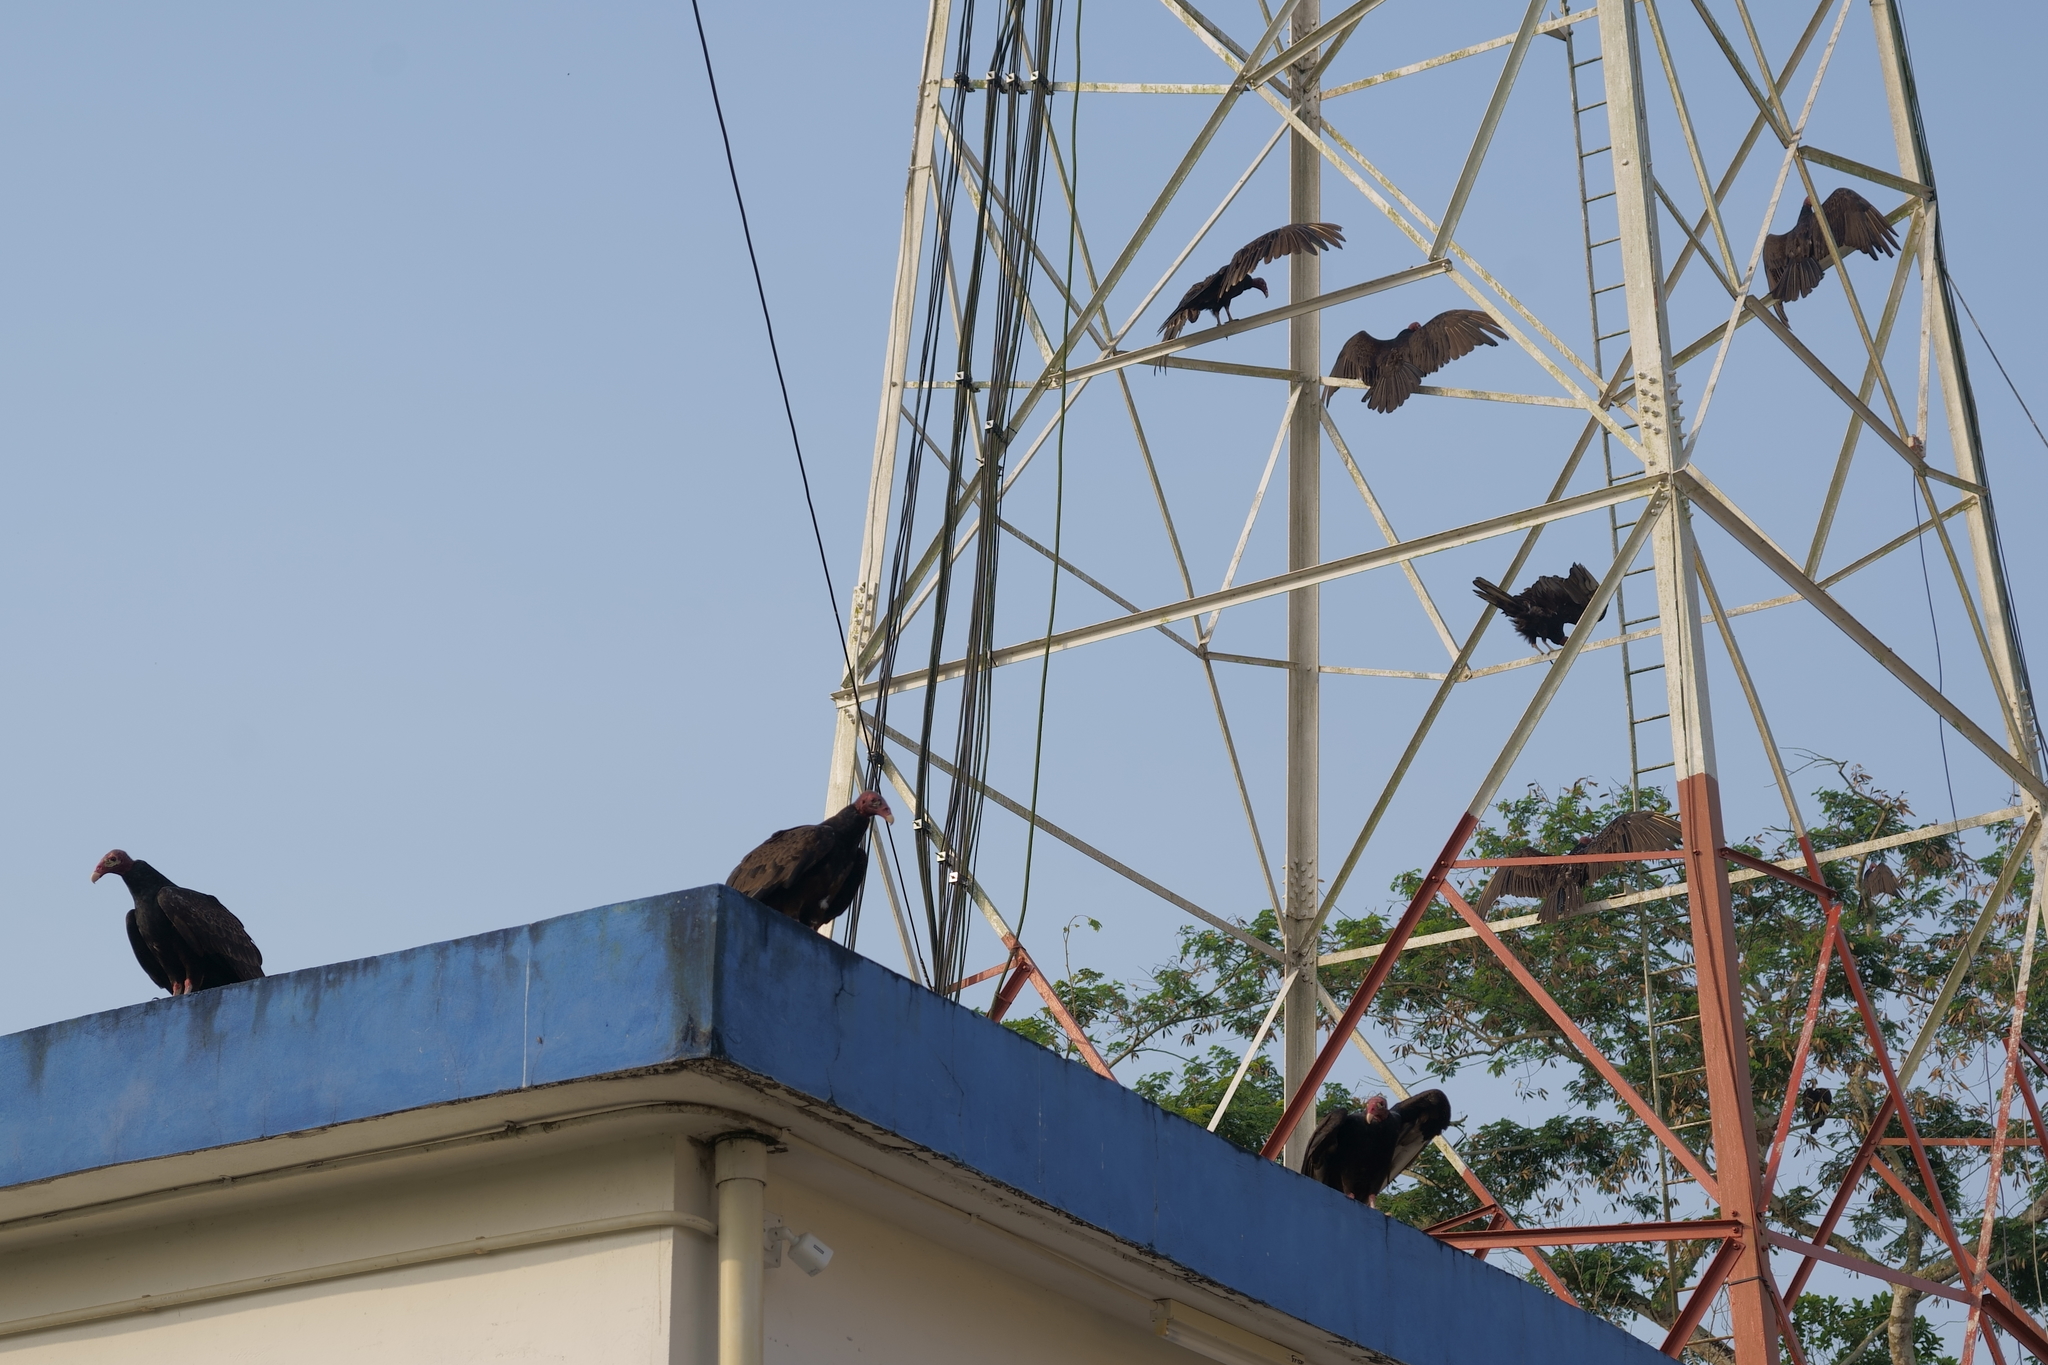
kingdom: Animalia
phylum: Chordata
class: Aves
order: Accipitriformes
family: Cathartidae
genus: Cathartes
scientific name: Cathartes aura
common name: Turkey vulture
